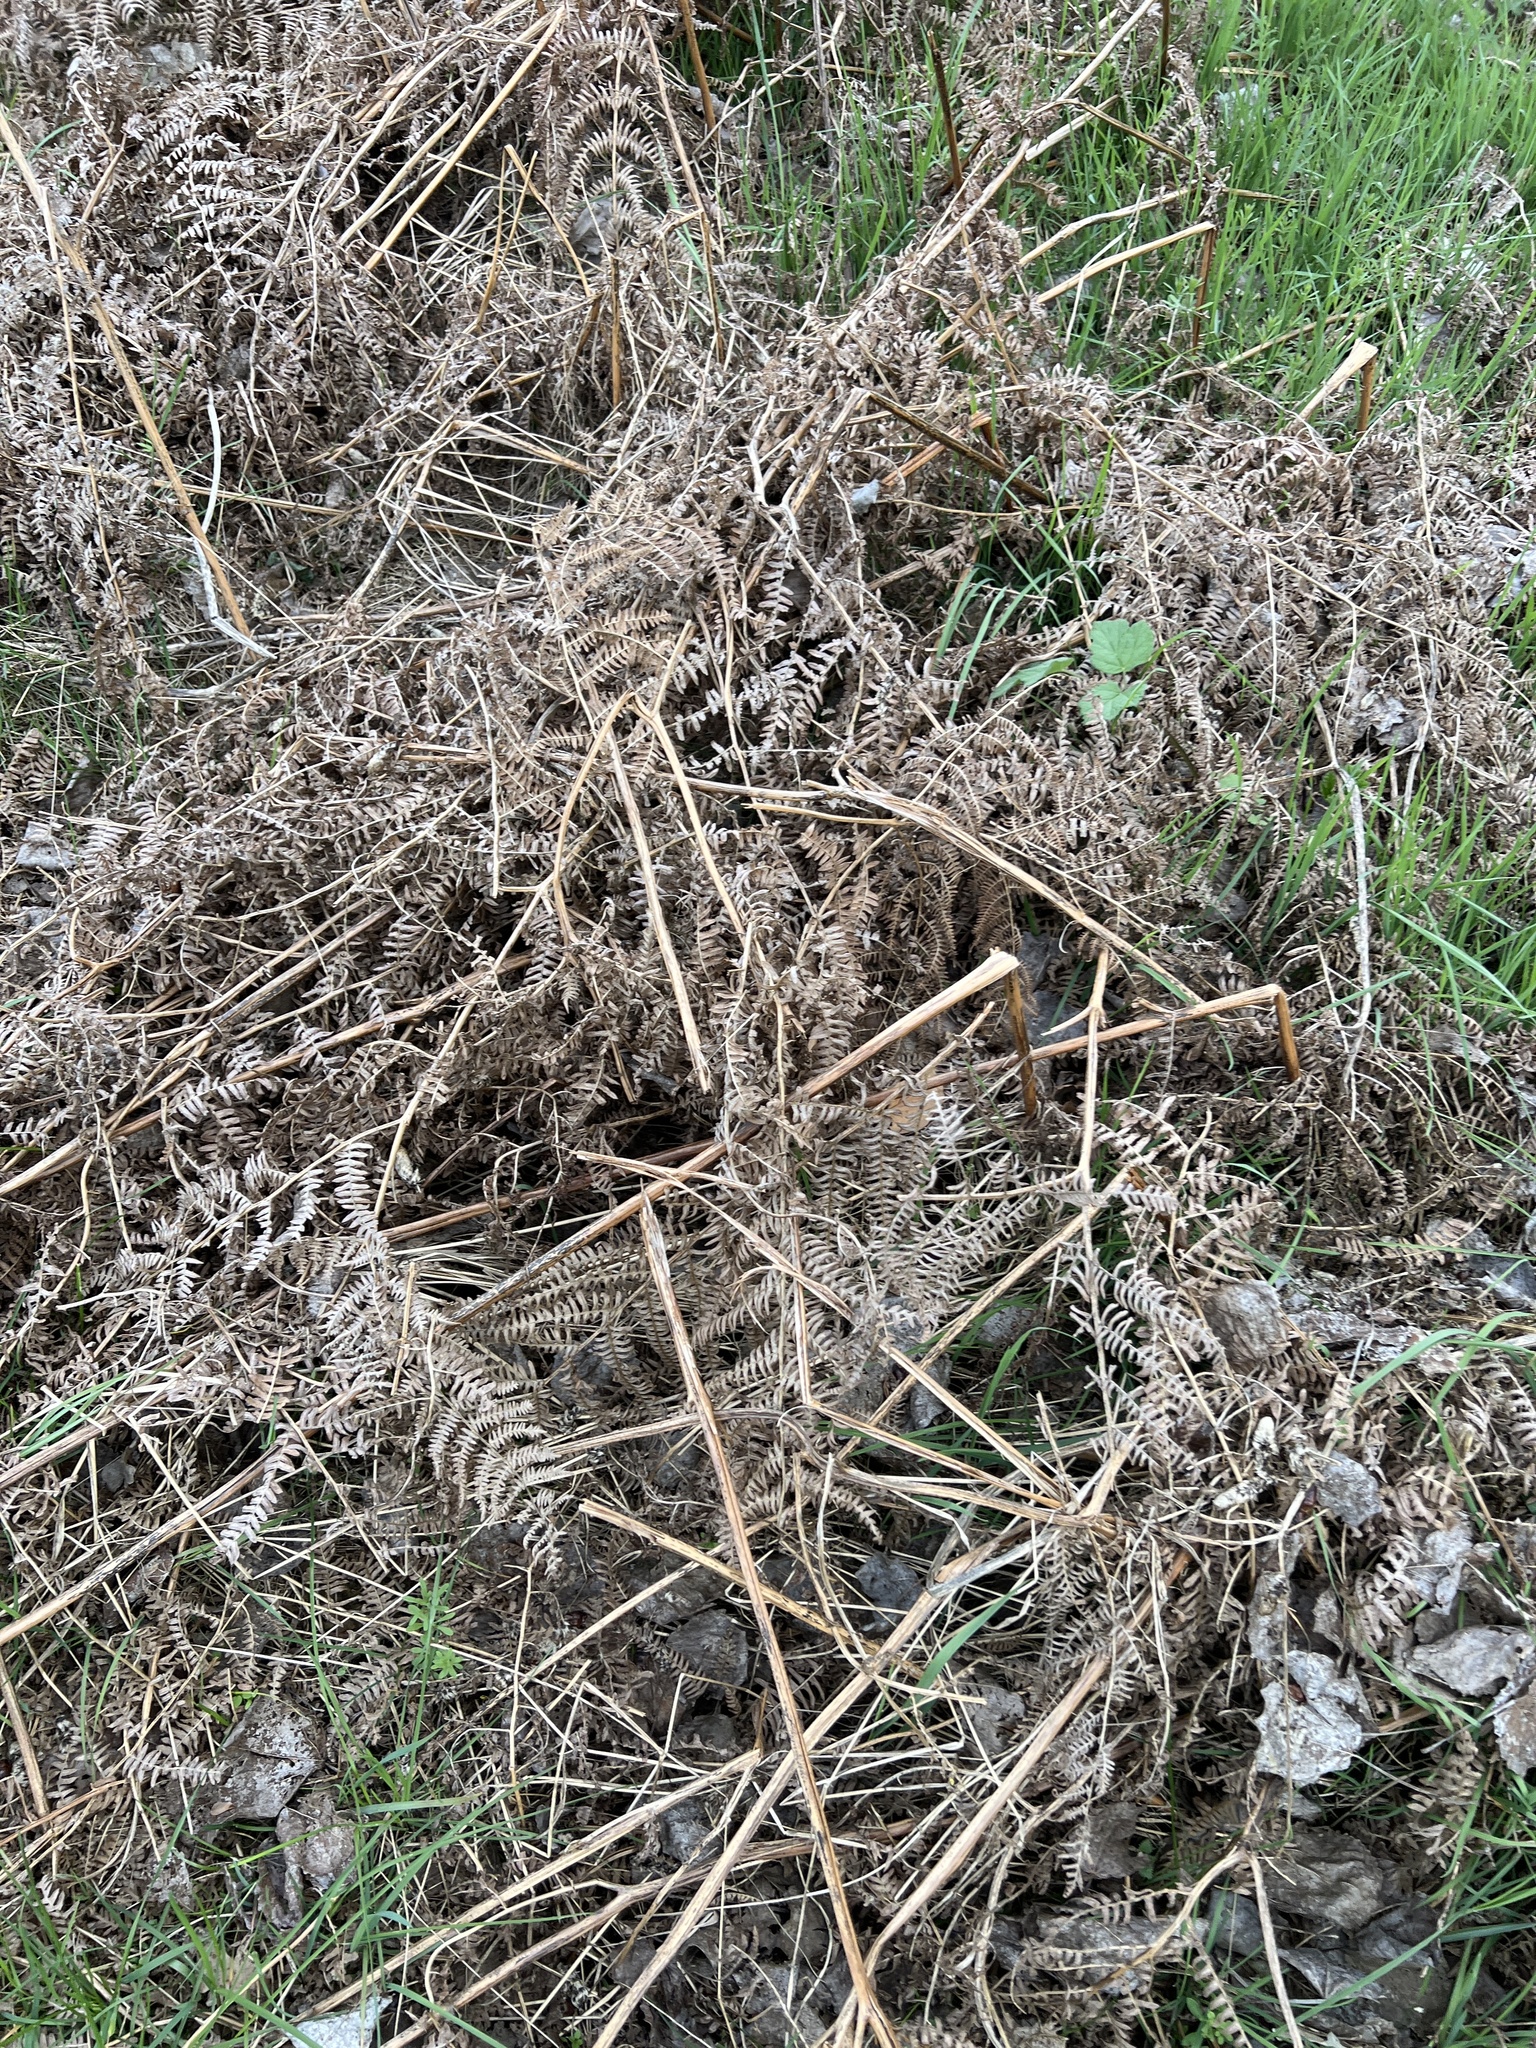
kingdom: Plantae
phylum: Tracheophyta
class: Polypodiopsida
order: Polypodiales
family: Dennstaedtiaceae
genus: Pteridium
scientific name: Pteridium aquilinum
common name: Bracken
